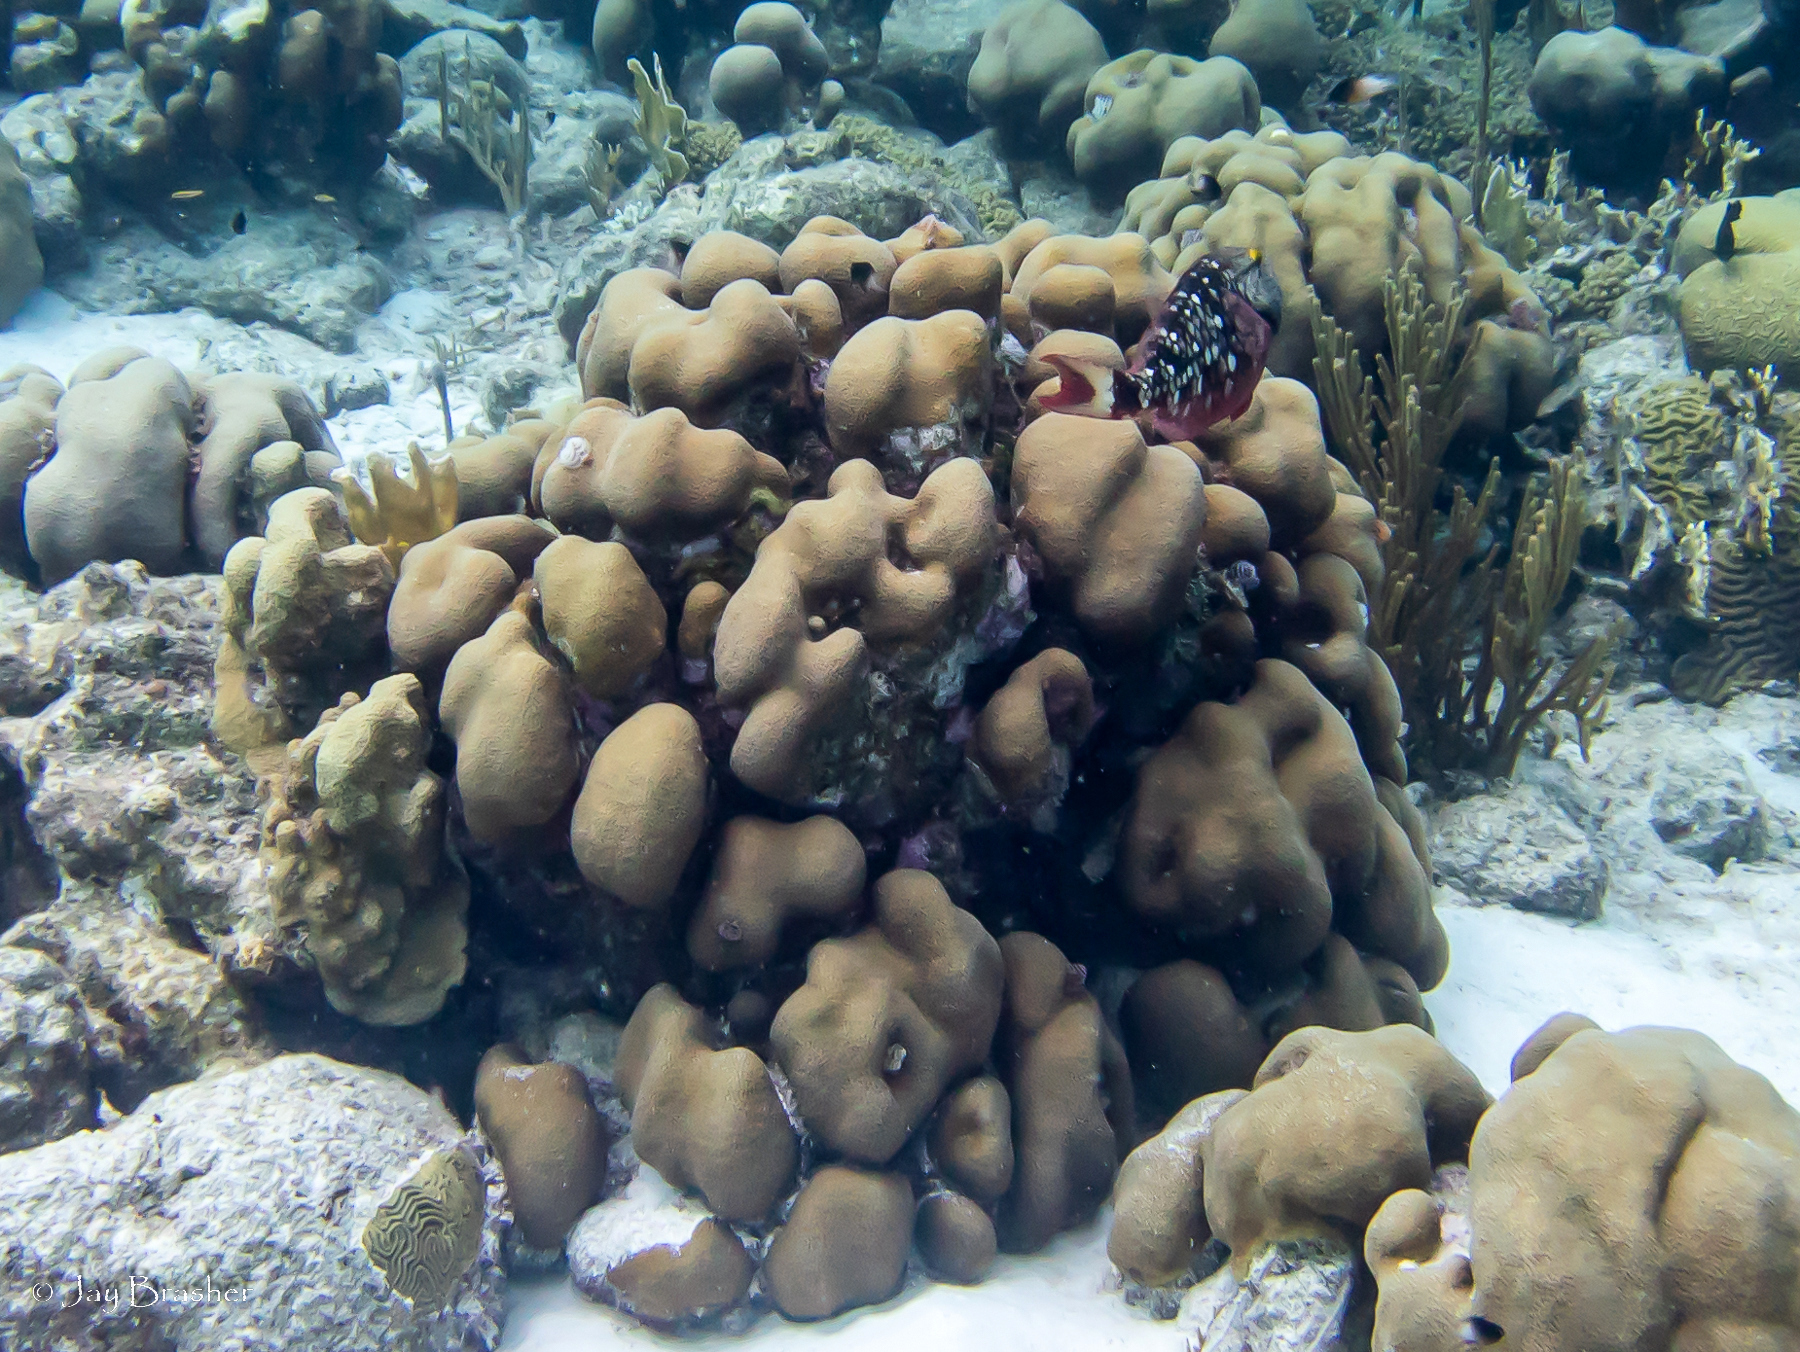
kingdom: Animalia
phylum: Cnidaria
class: Anthozoa
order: Scleractinia
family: Merulinidae
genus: Orbicella
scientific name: Orbicella annularis
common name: Boulder star coral
